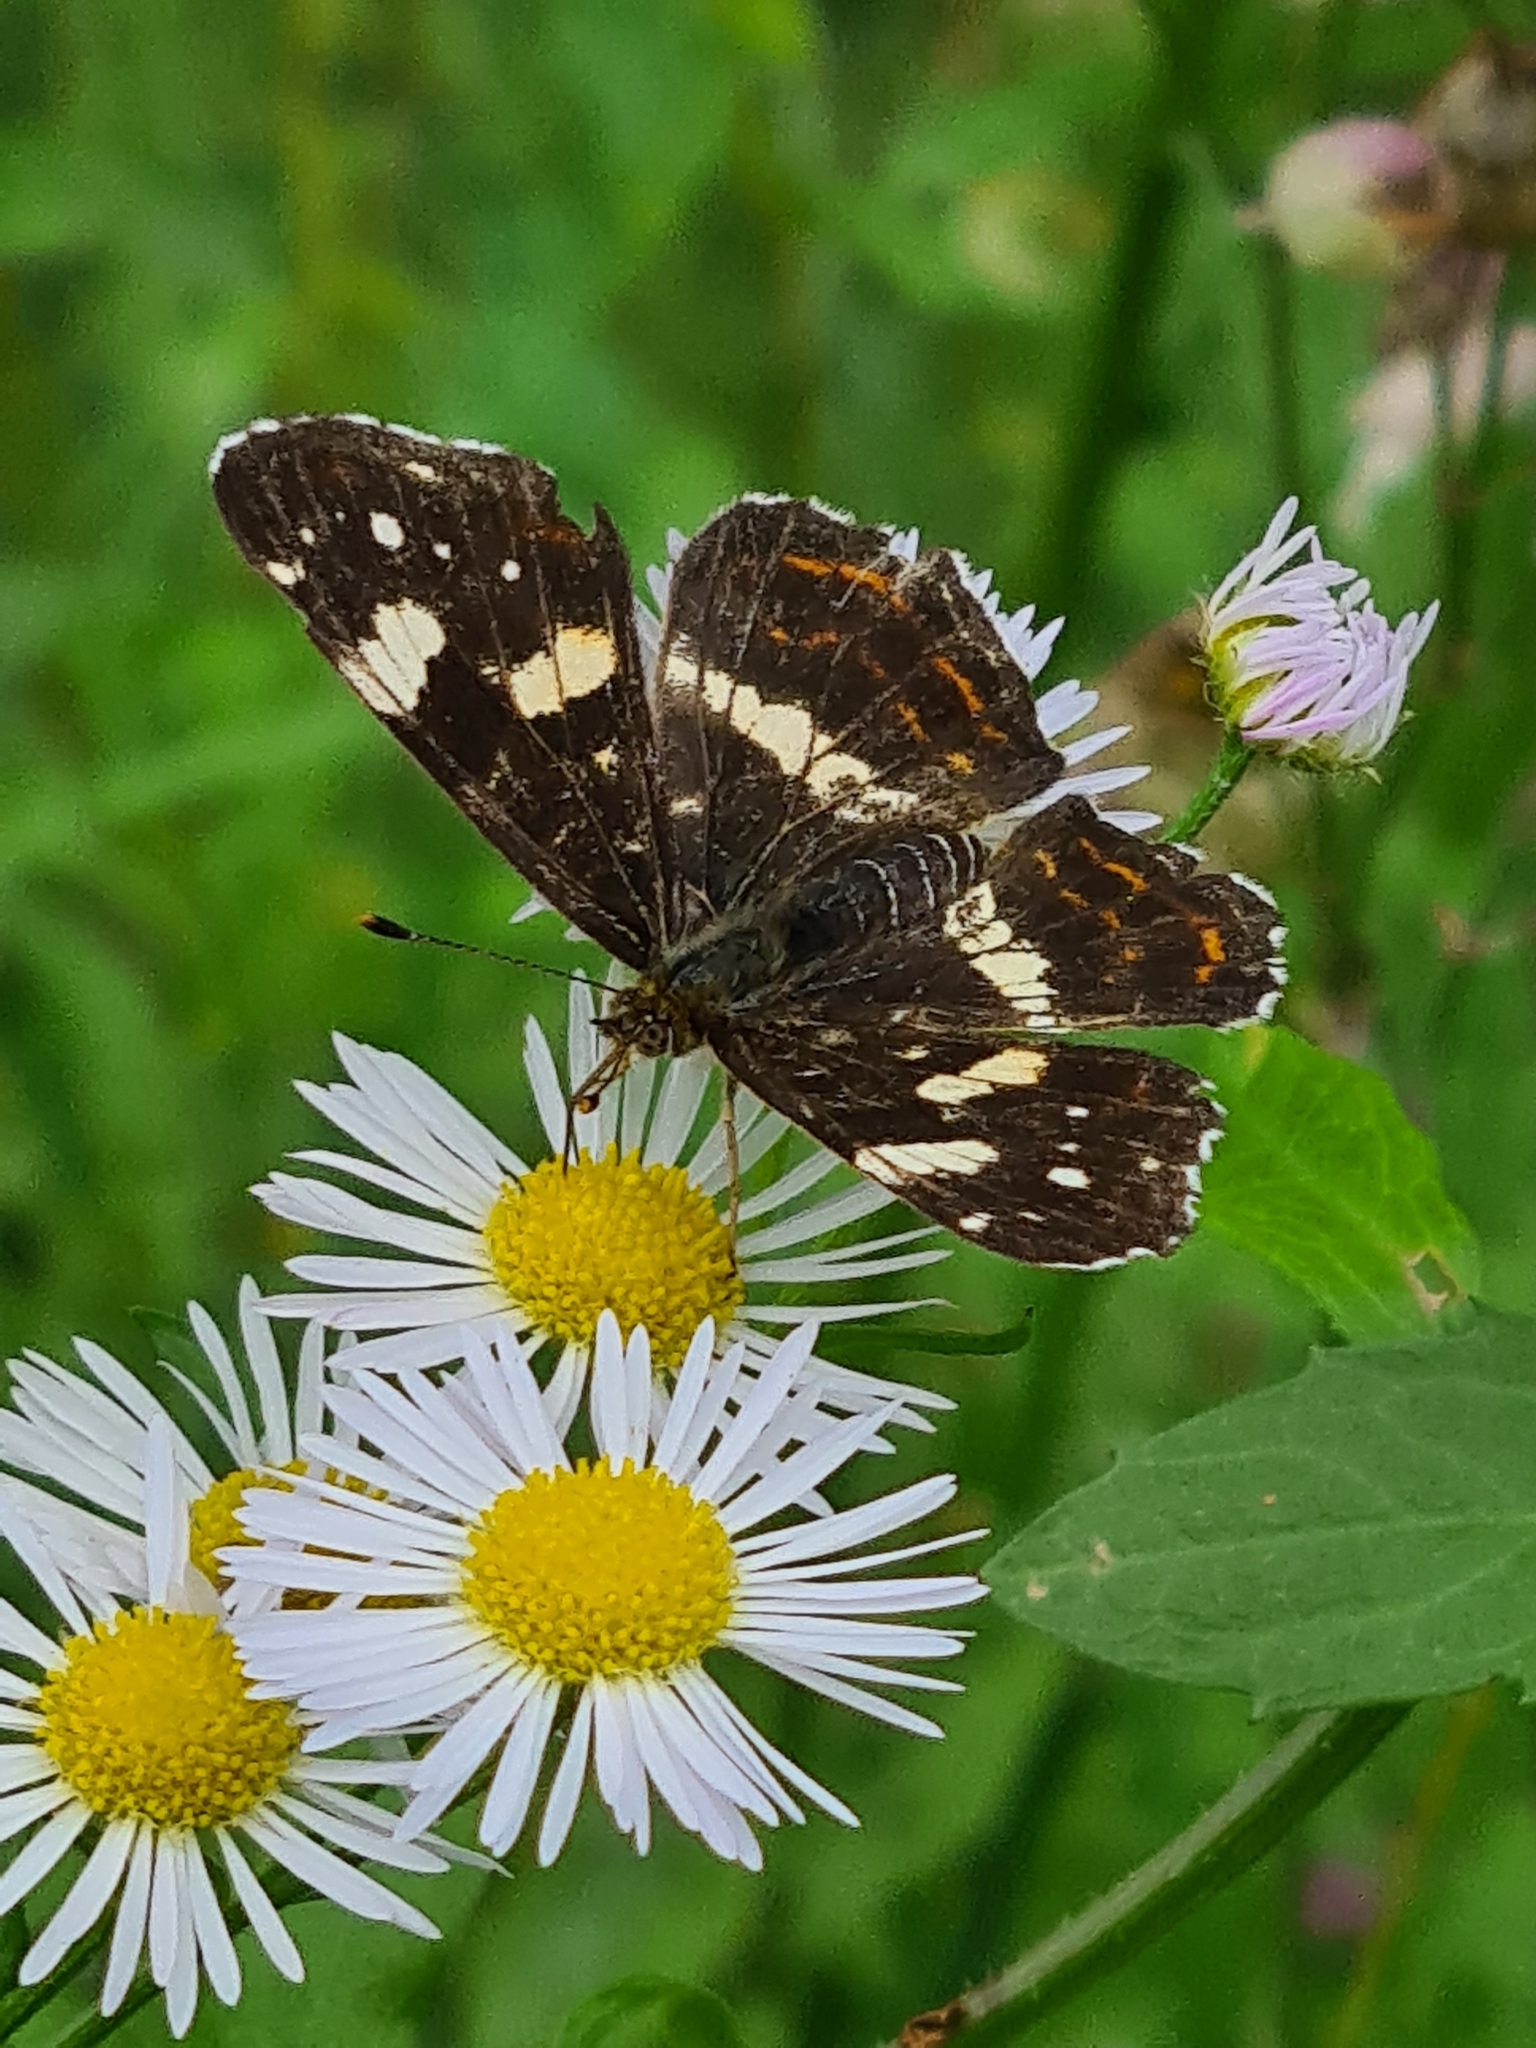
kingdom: Animalia
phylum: Arthropoda
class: Insecta
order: Lepidoptera
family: Nymphalidae
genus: Araschnia
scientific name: Araschnia levana
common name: Map butterfly
